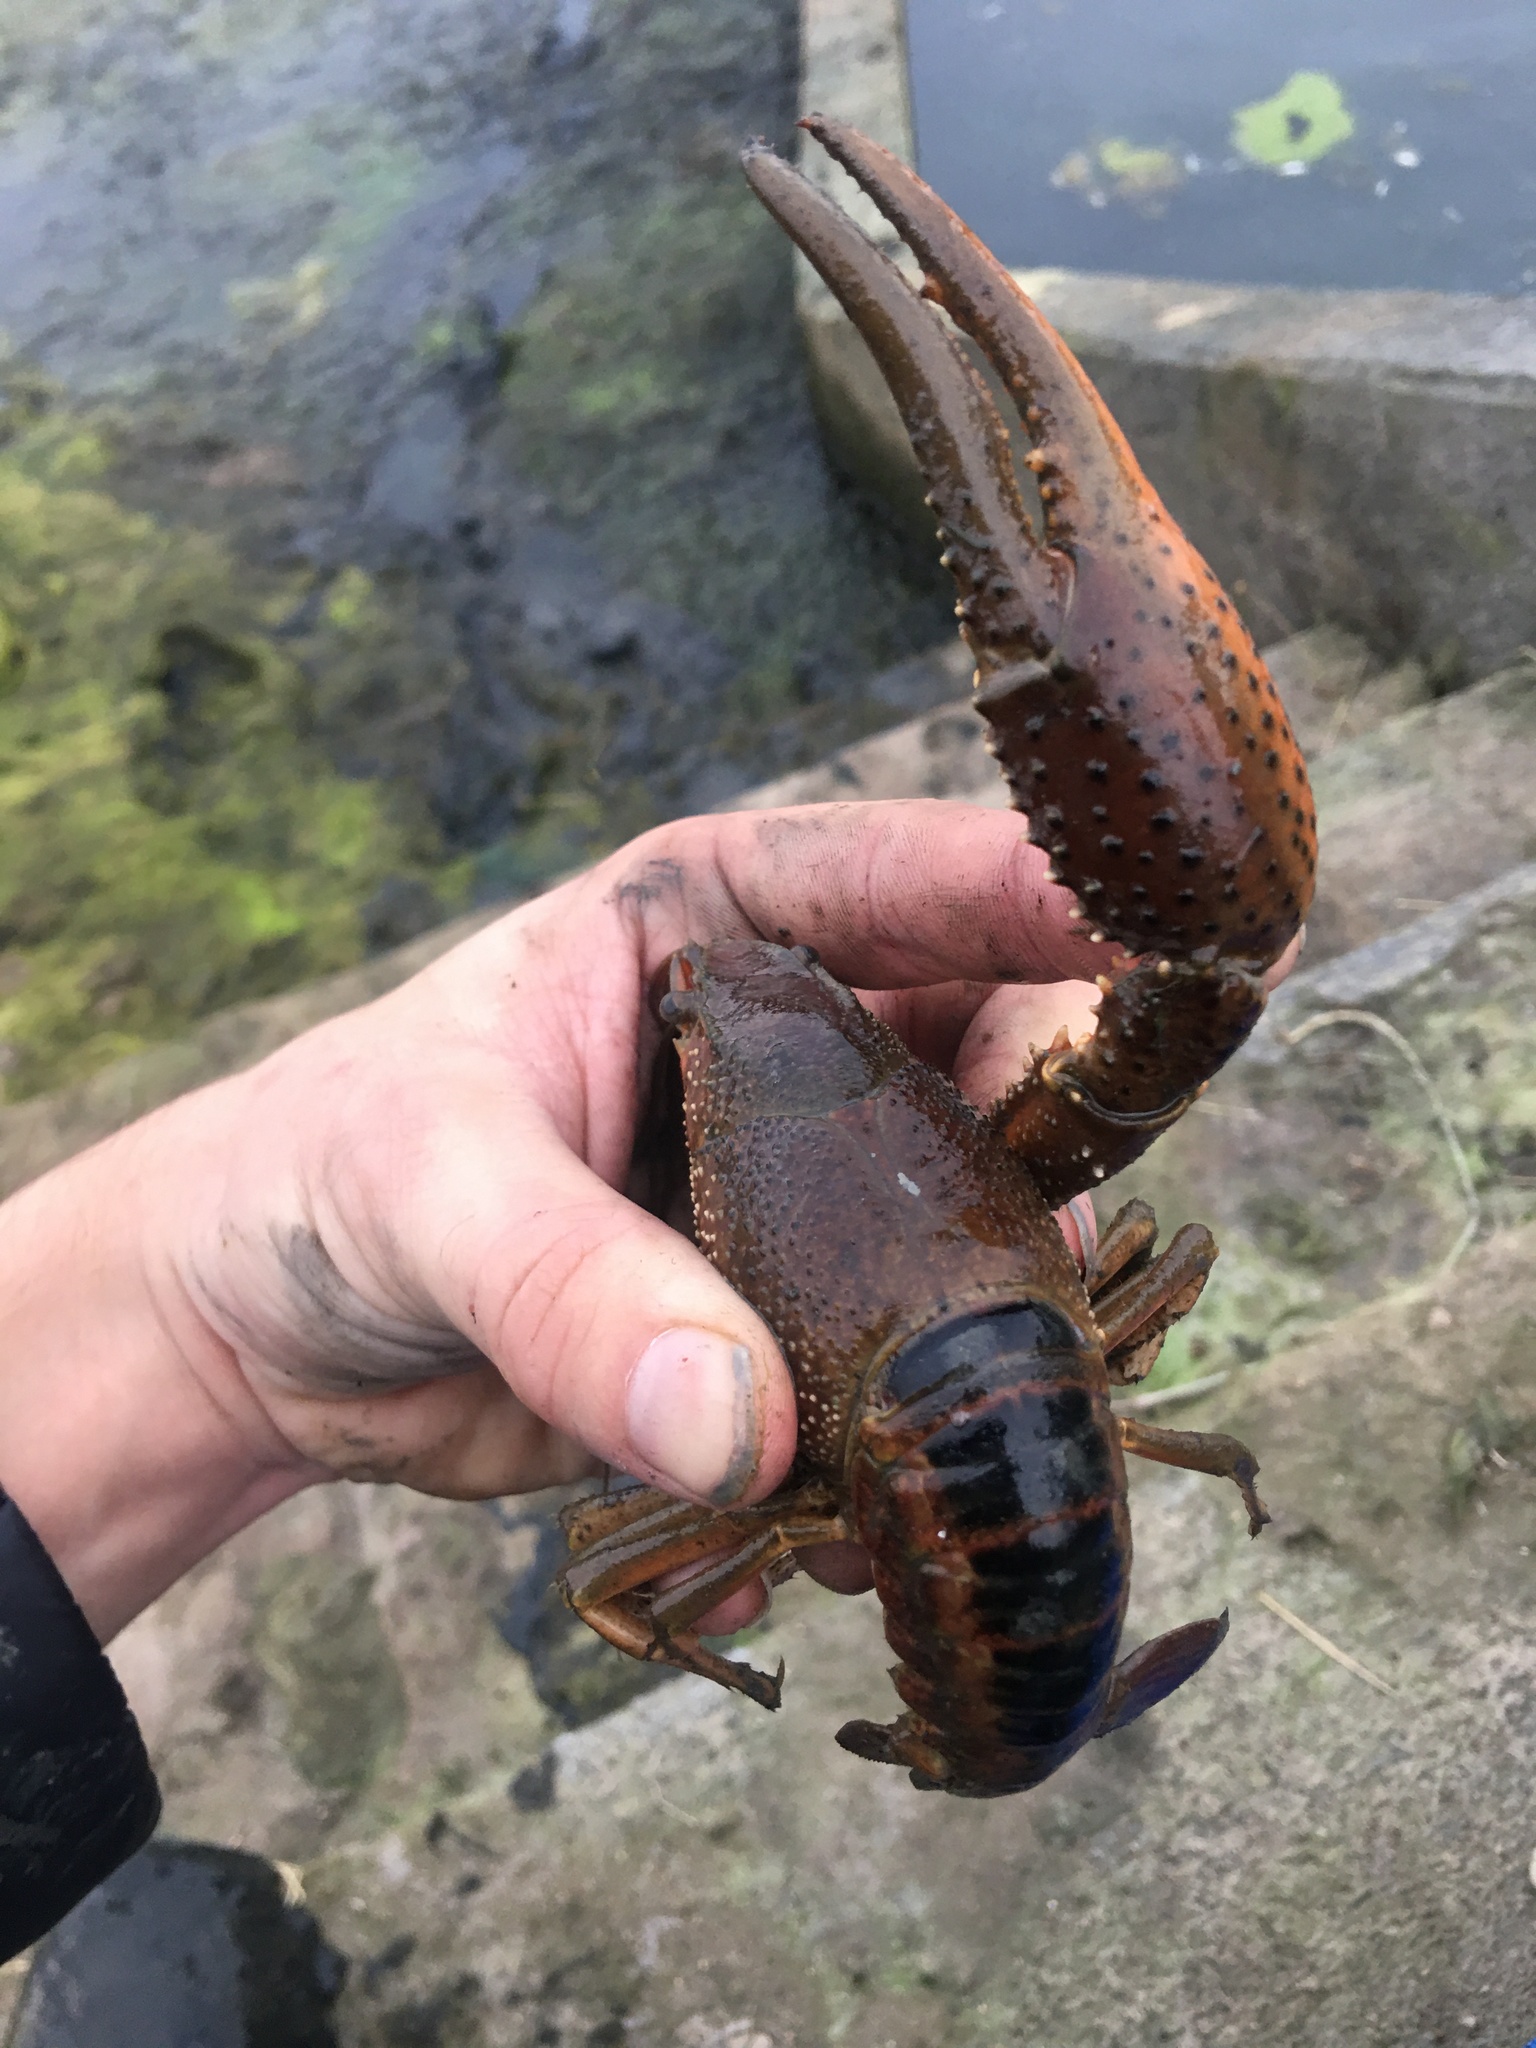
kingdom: Animalia
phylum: Arthropoda
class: Malacostraca
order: Decapoda
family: Cambaridae
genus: Procambarus
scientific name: Procambarus acutus
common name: White river crayfish
